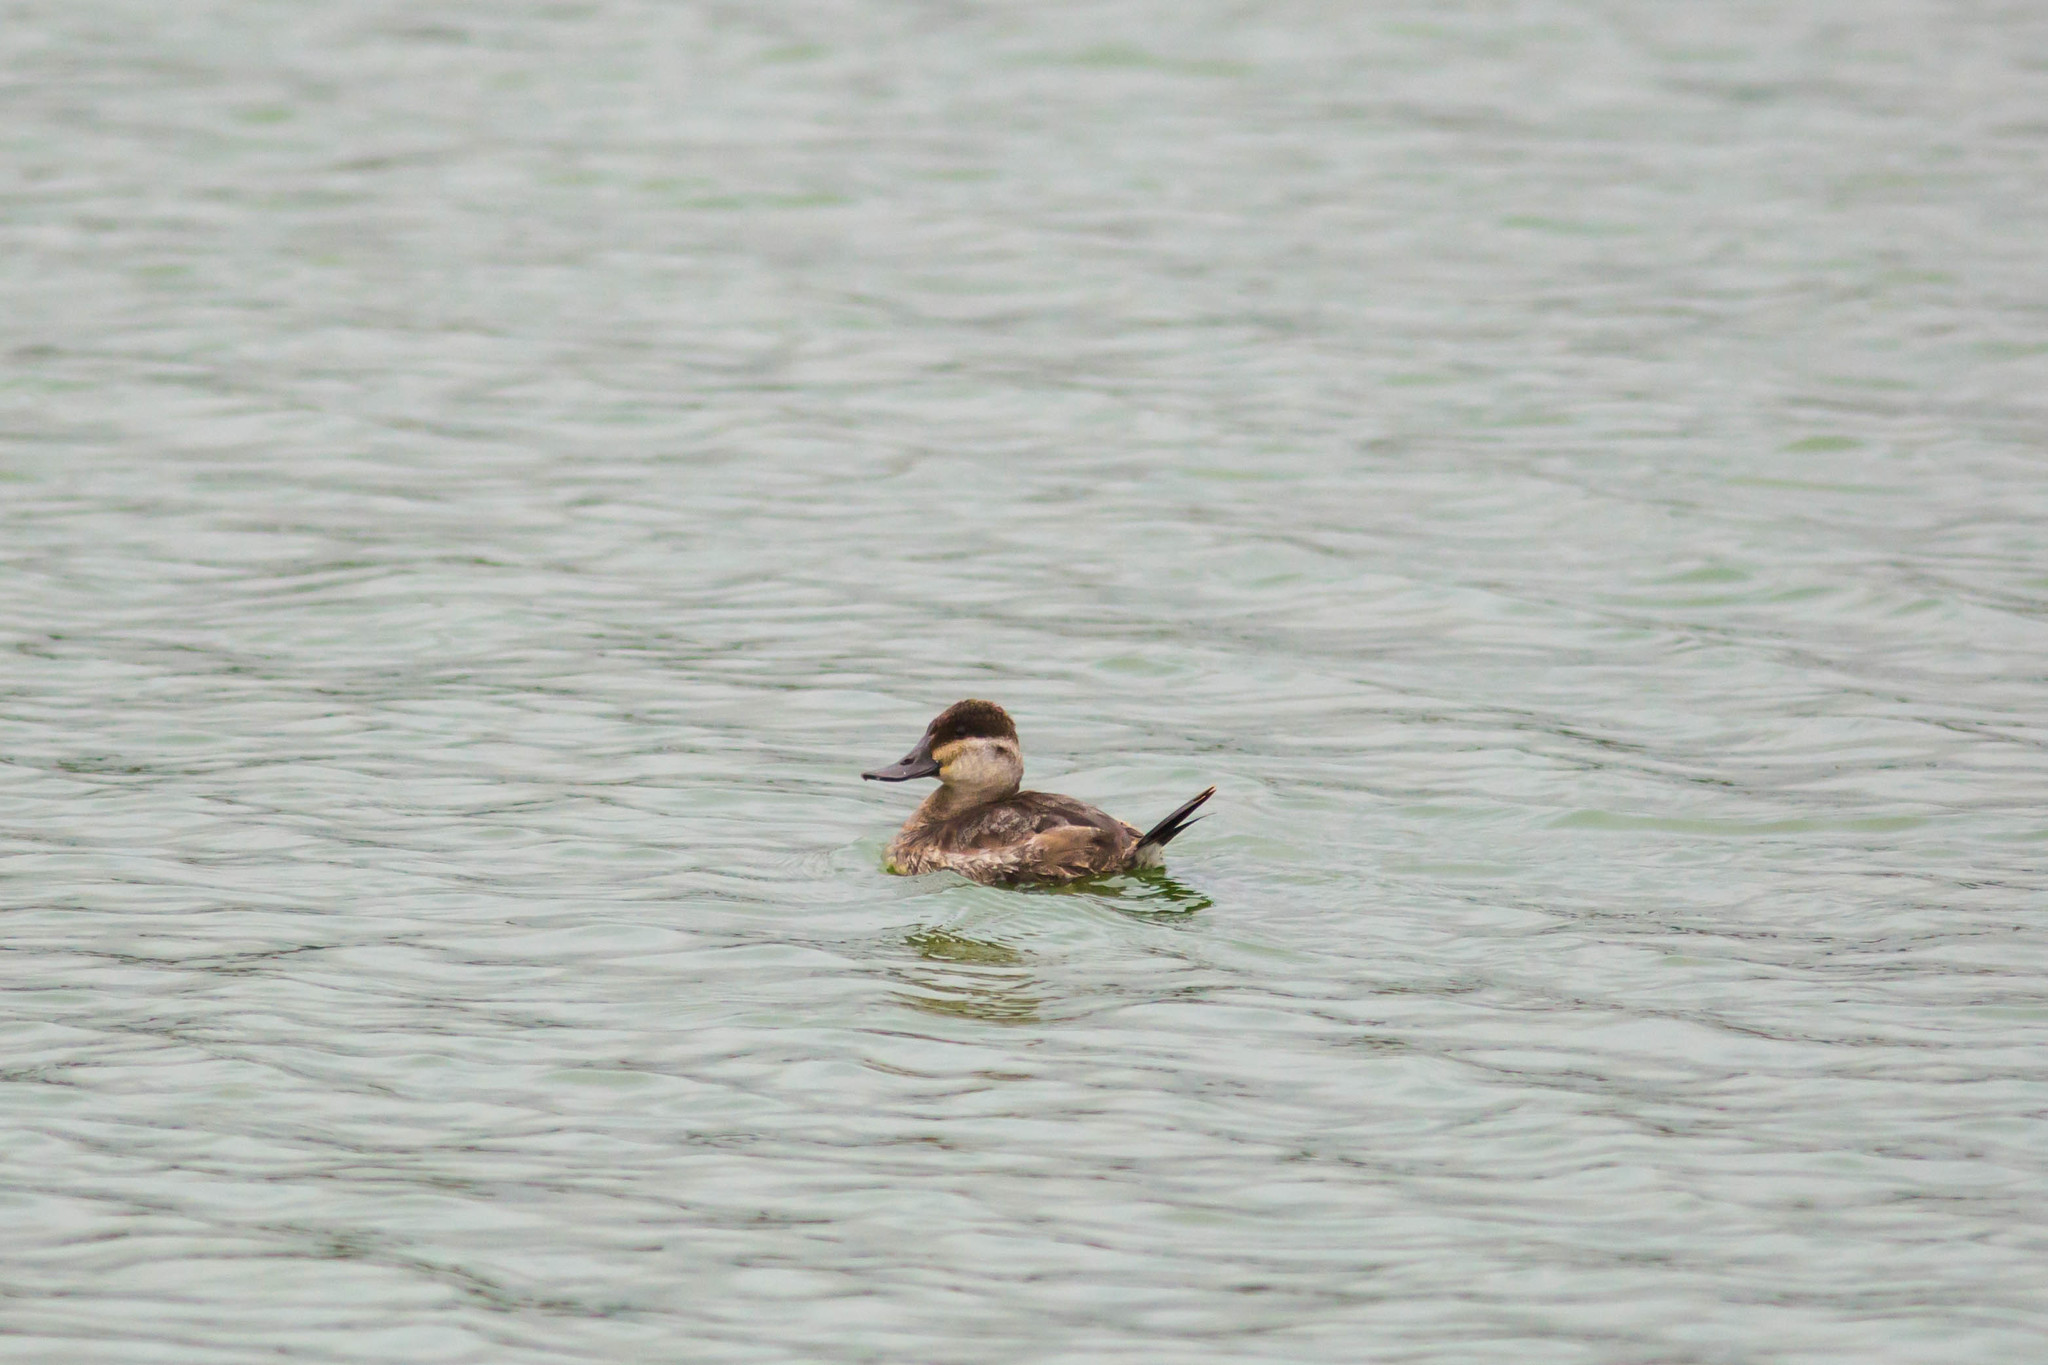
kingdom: Animalia
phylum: Chordata
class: Aves
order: Anseriformes
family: Anatidae
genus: Oxyura
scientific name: Oxyura jamaicensis
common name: Ruddy duck
